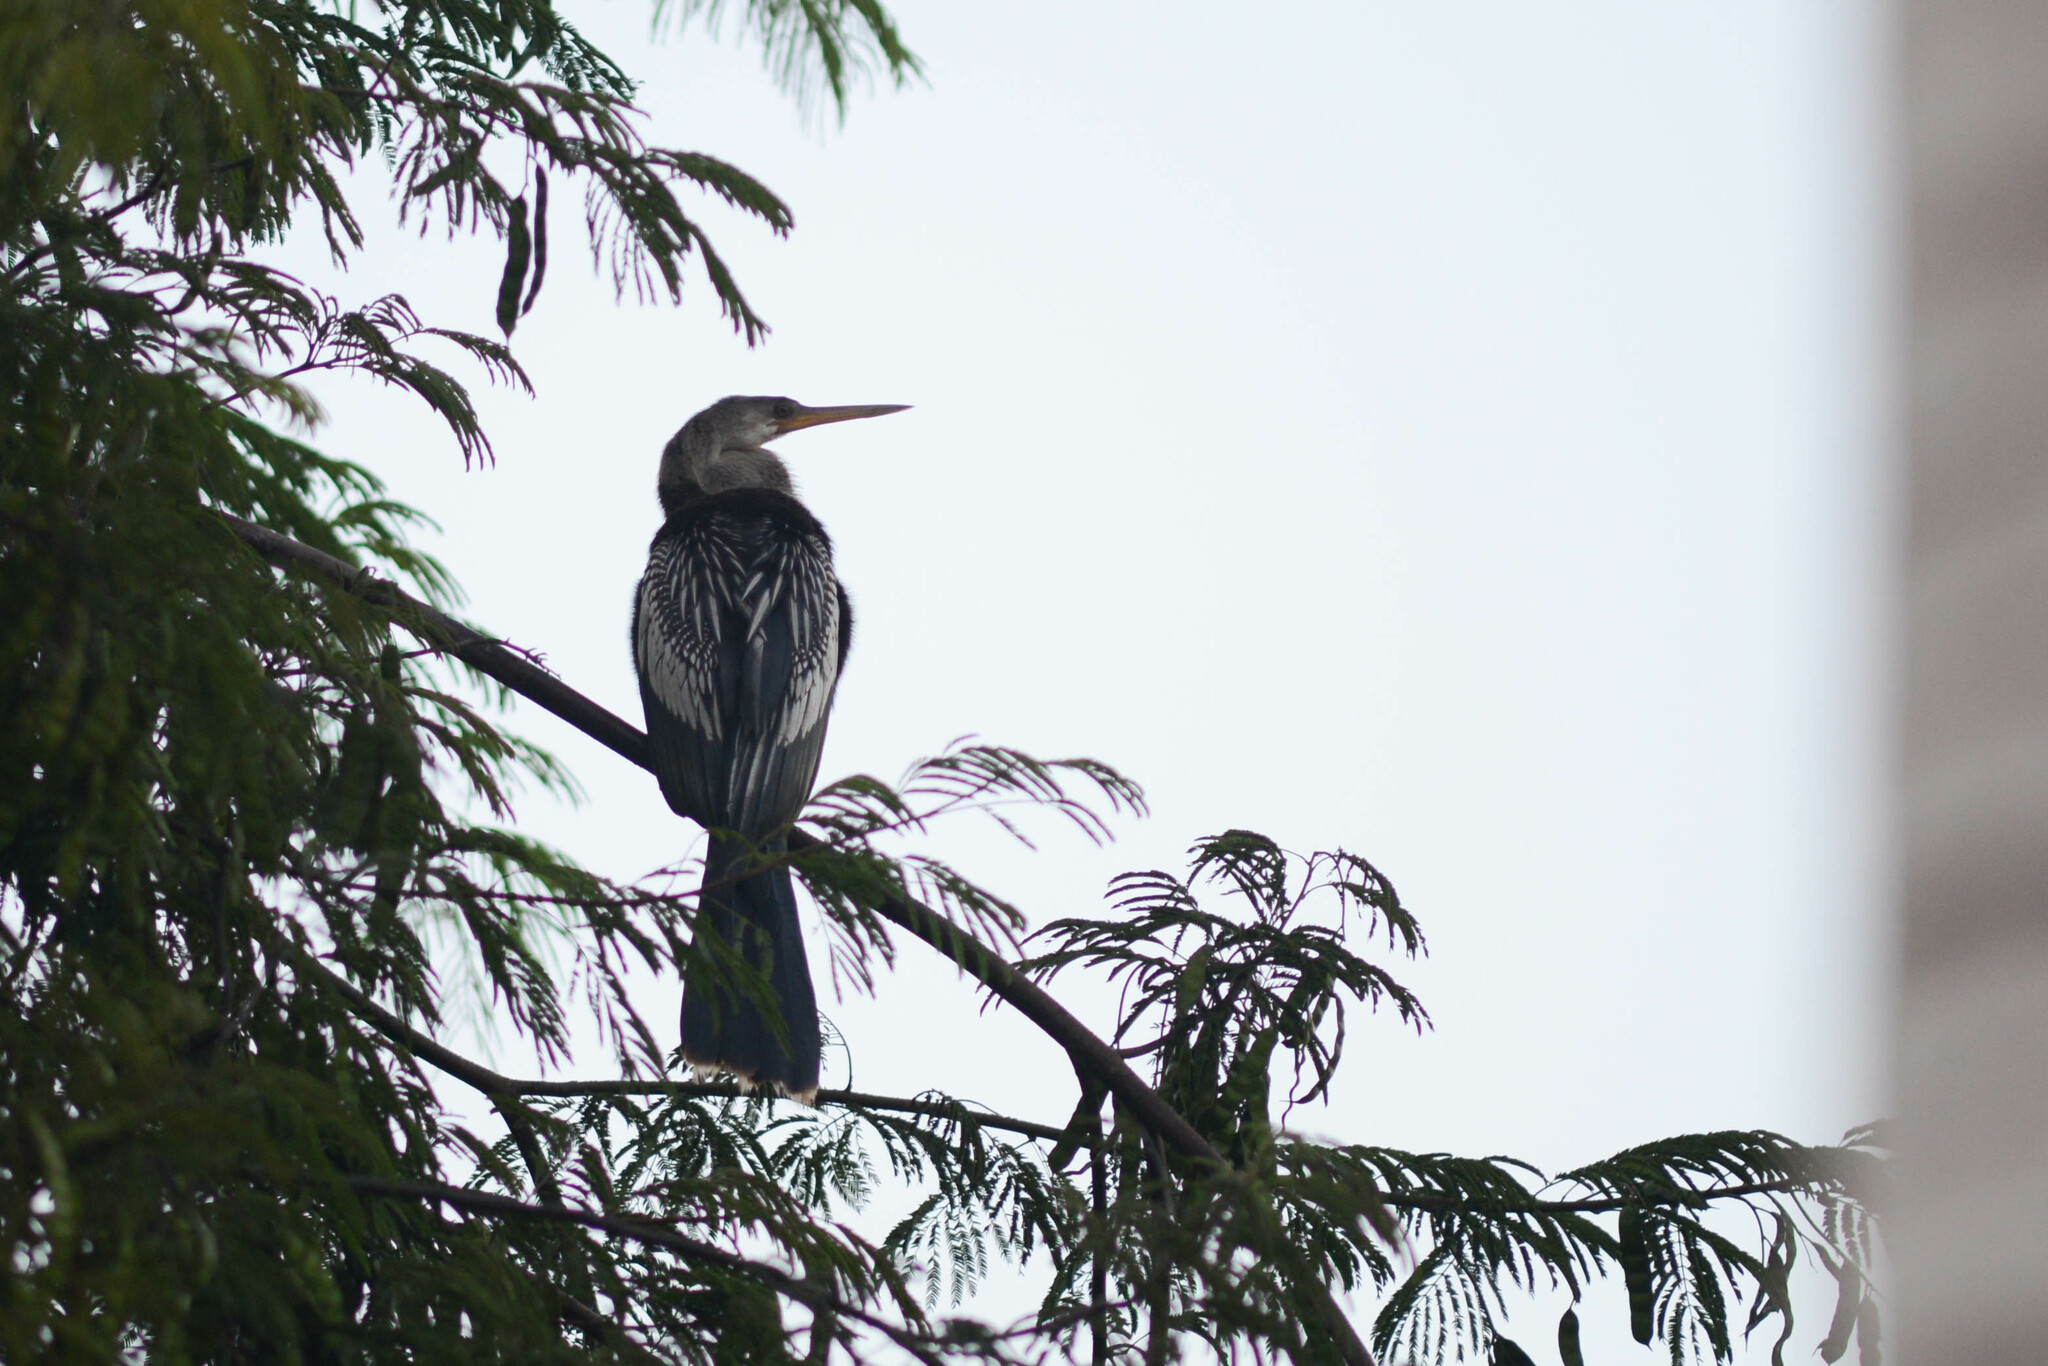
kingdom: Animalia
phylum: Chordata
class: Aves
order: Suliformes
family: Anhingidae
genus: Anhinga
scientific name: Anhinga anhinga
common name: Anhinga
